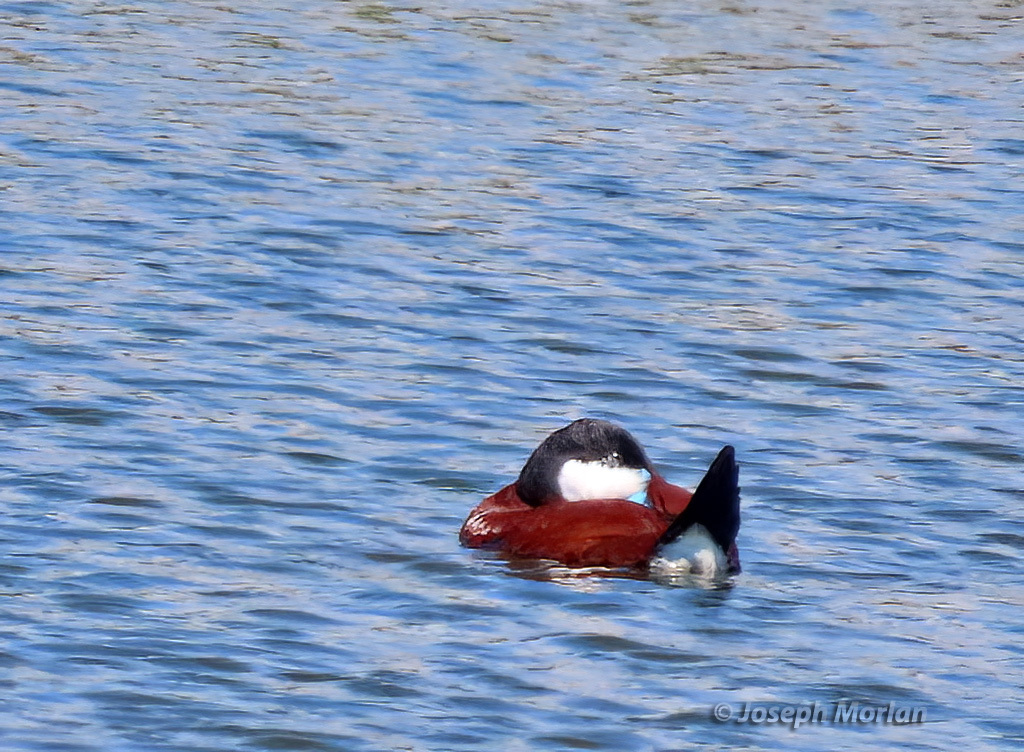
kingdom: Animalia
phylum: Chordata
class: Aves
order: Anseriformes
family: Anatidae
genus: Oxyura
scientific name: Oxyura jamaicensis
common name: Ruddy duck
